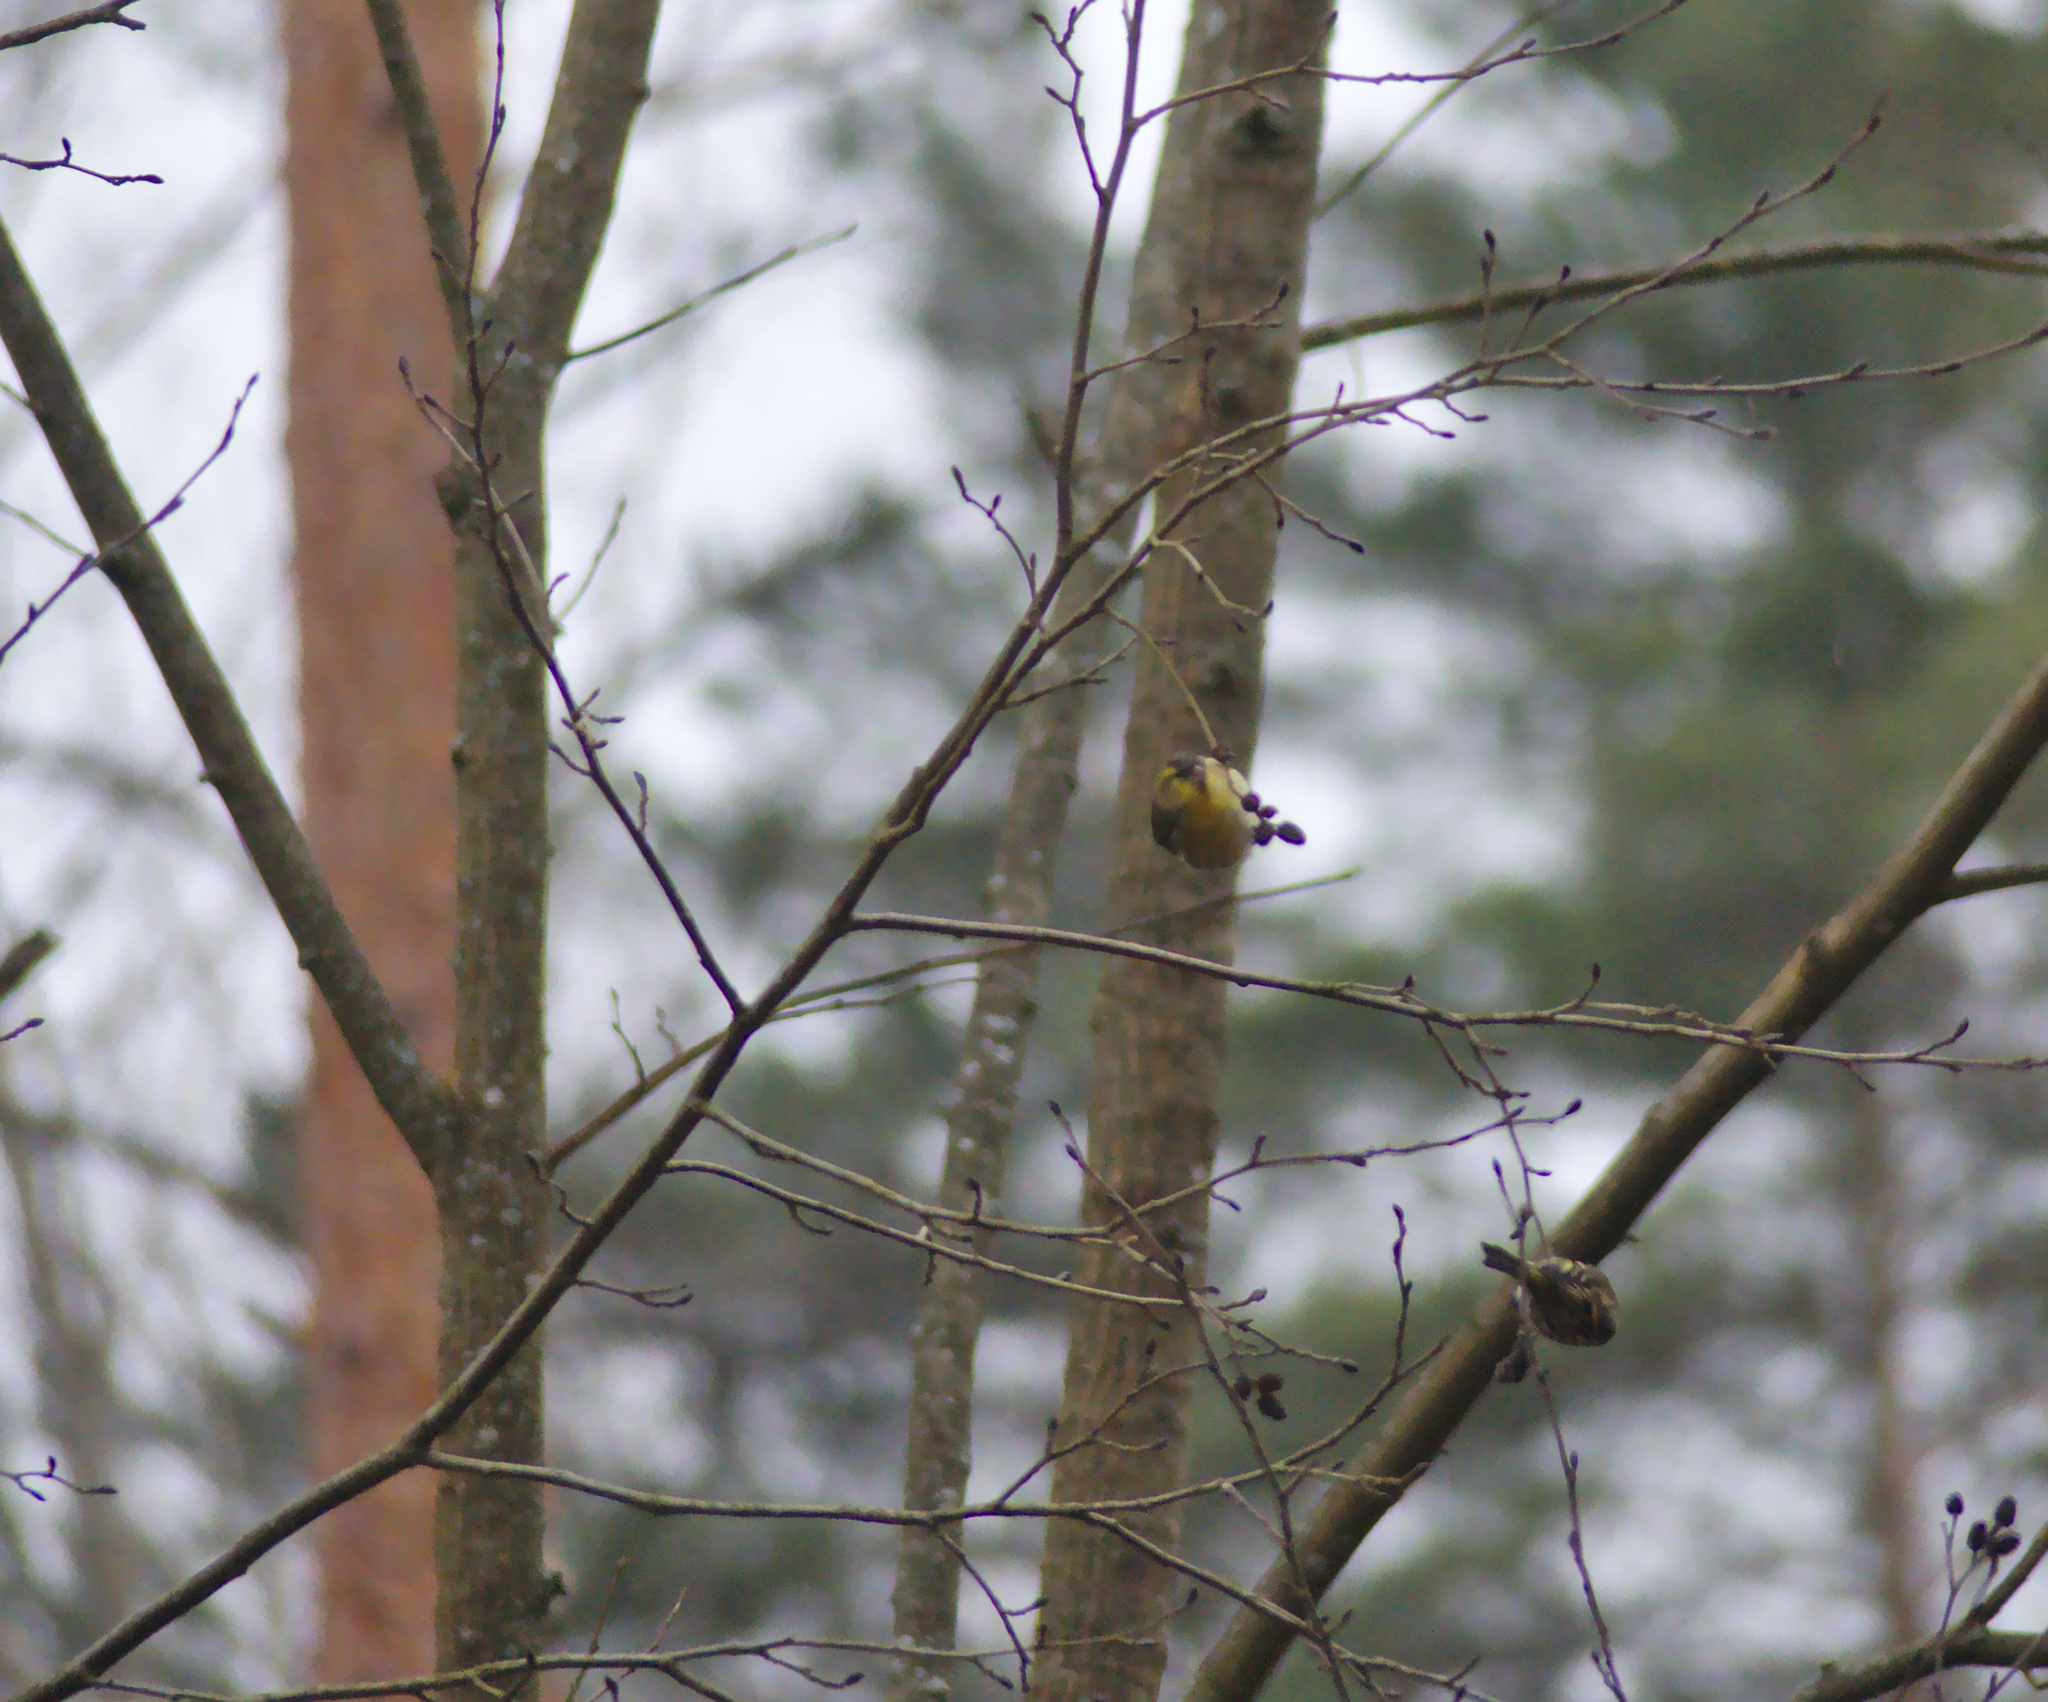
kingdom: Animalia
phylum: Chordata
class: Aves
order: Passeriformes
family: Fringillidae
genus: Spinus
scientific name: Spinus spinus
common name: Eurasian siskin
